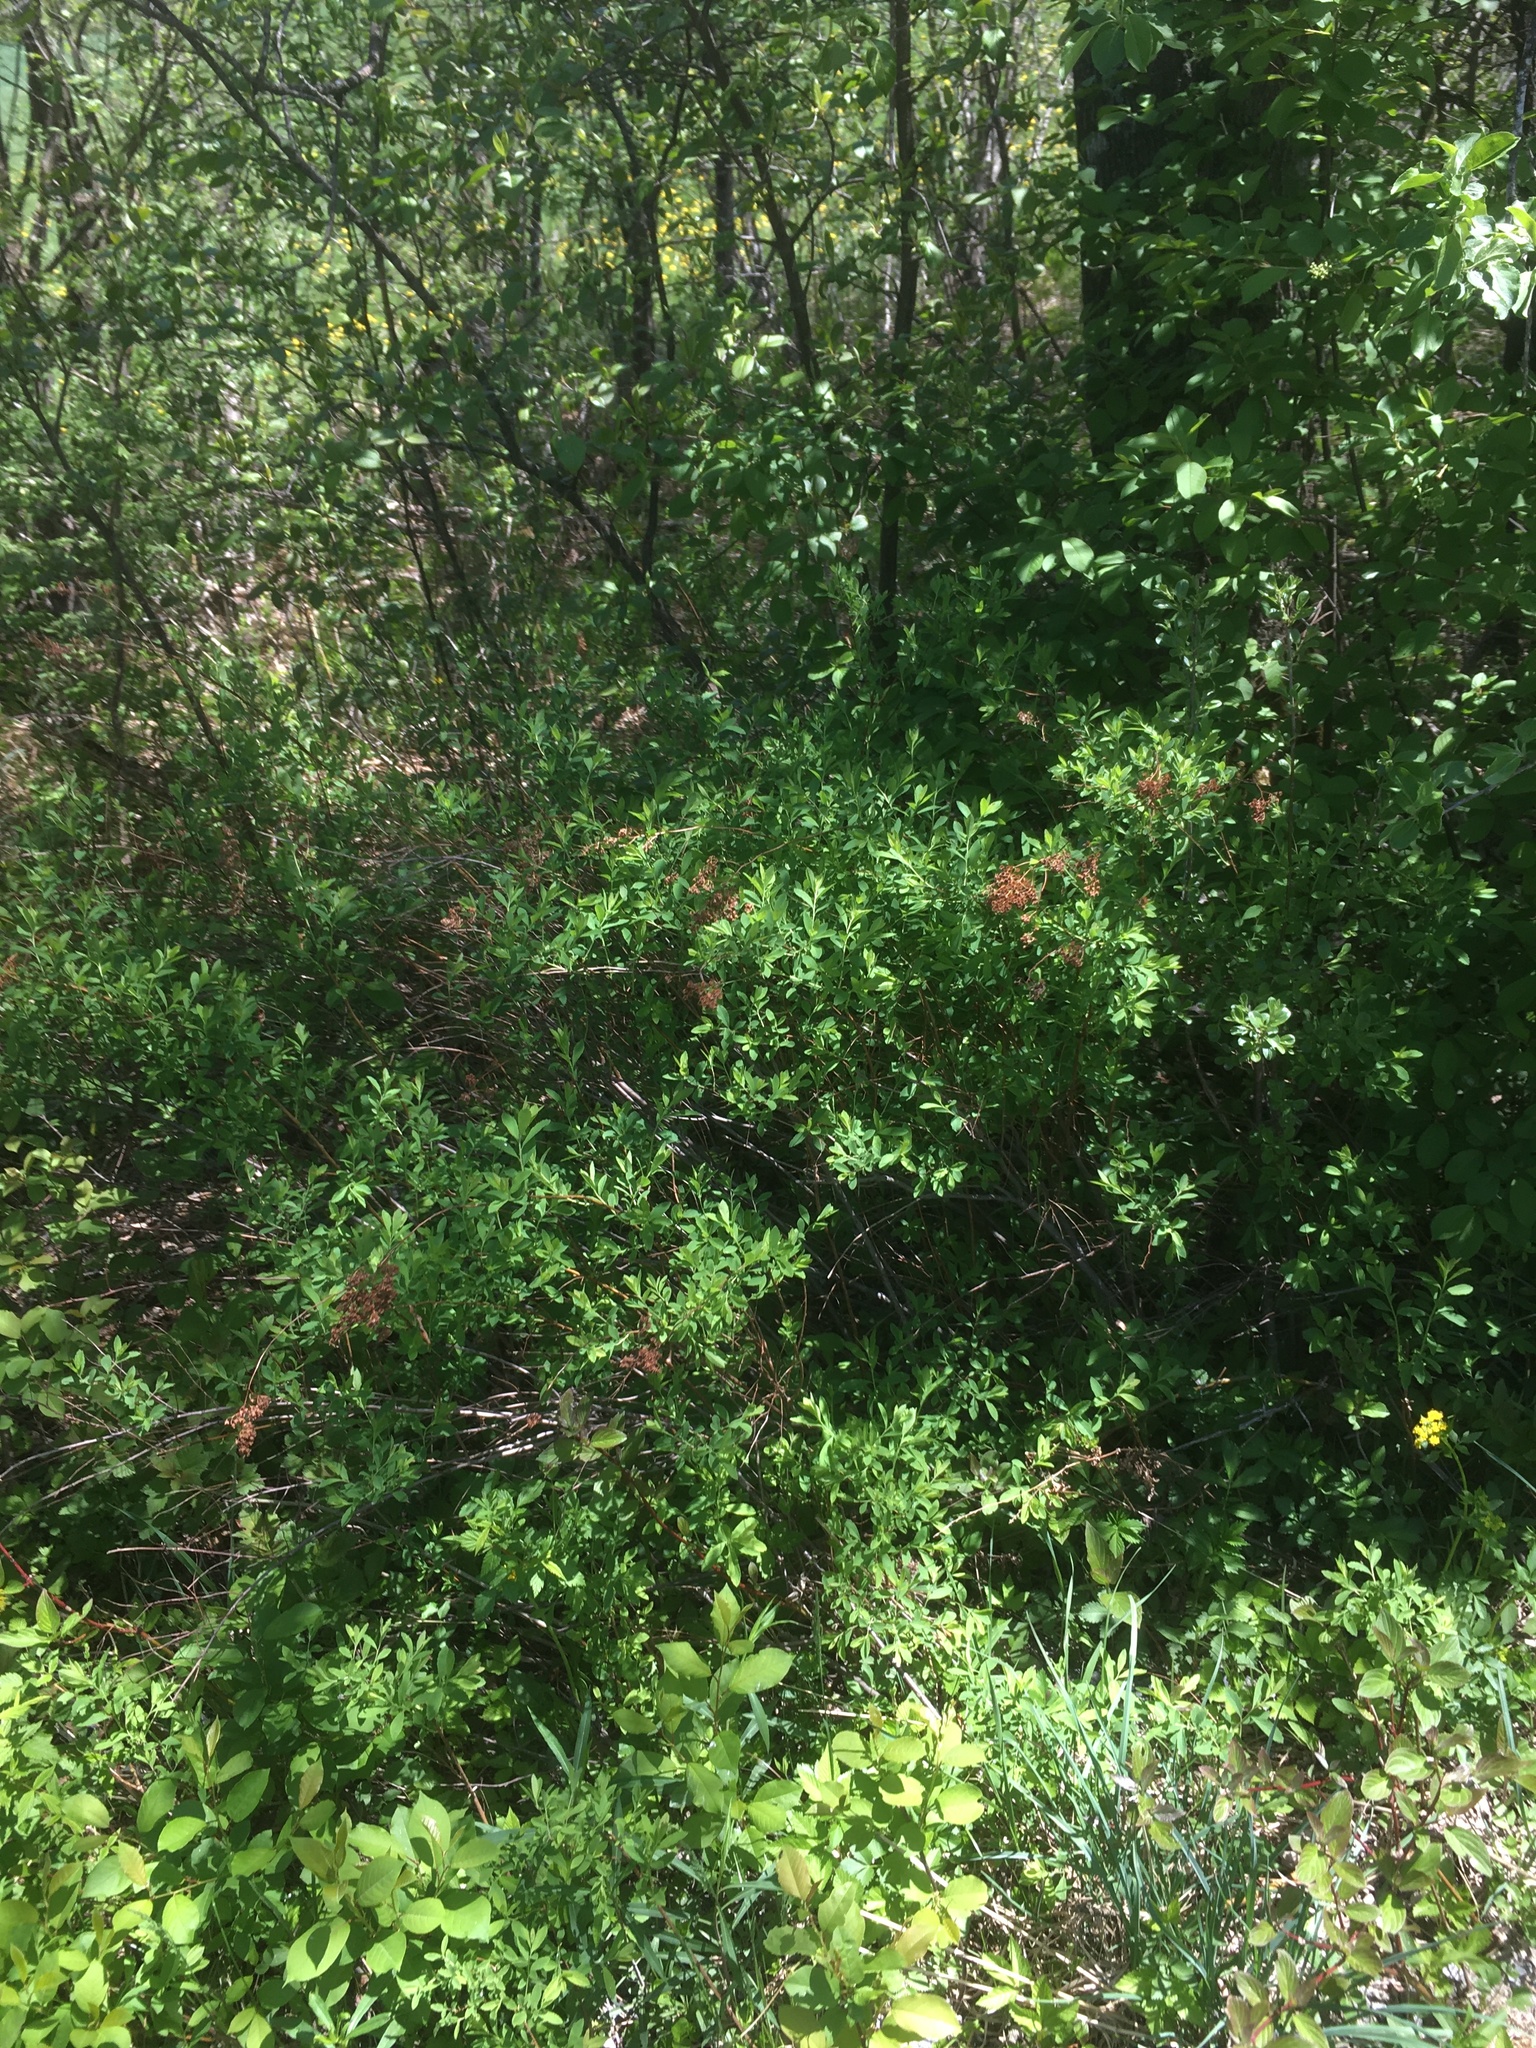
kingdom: Plantae
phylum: Tracheophyta
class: Magnoliopsida
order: Rosales
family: Rosaceae
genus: Spiraea
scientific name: Spiraea alba
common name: Pale bridewort
